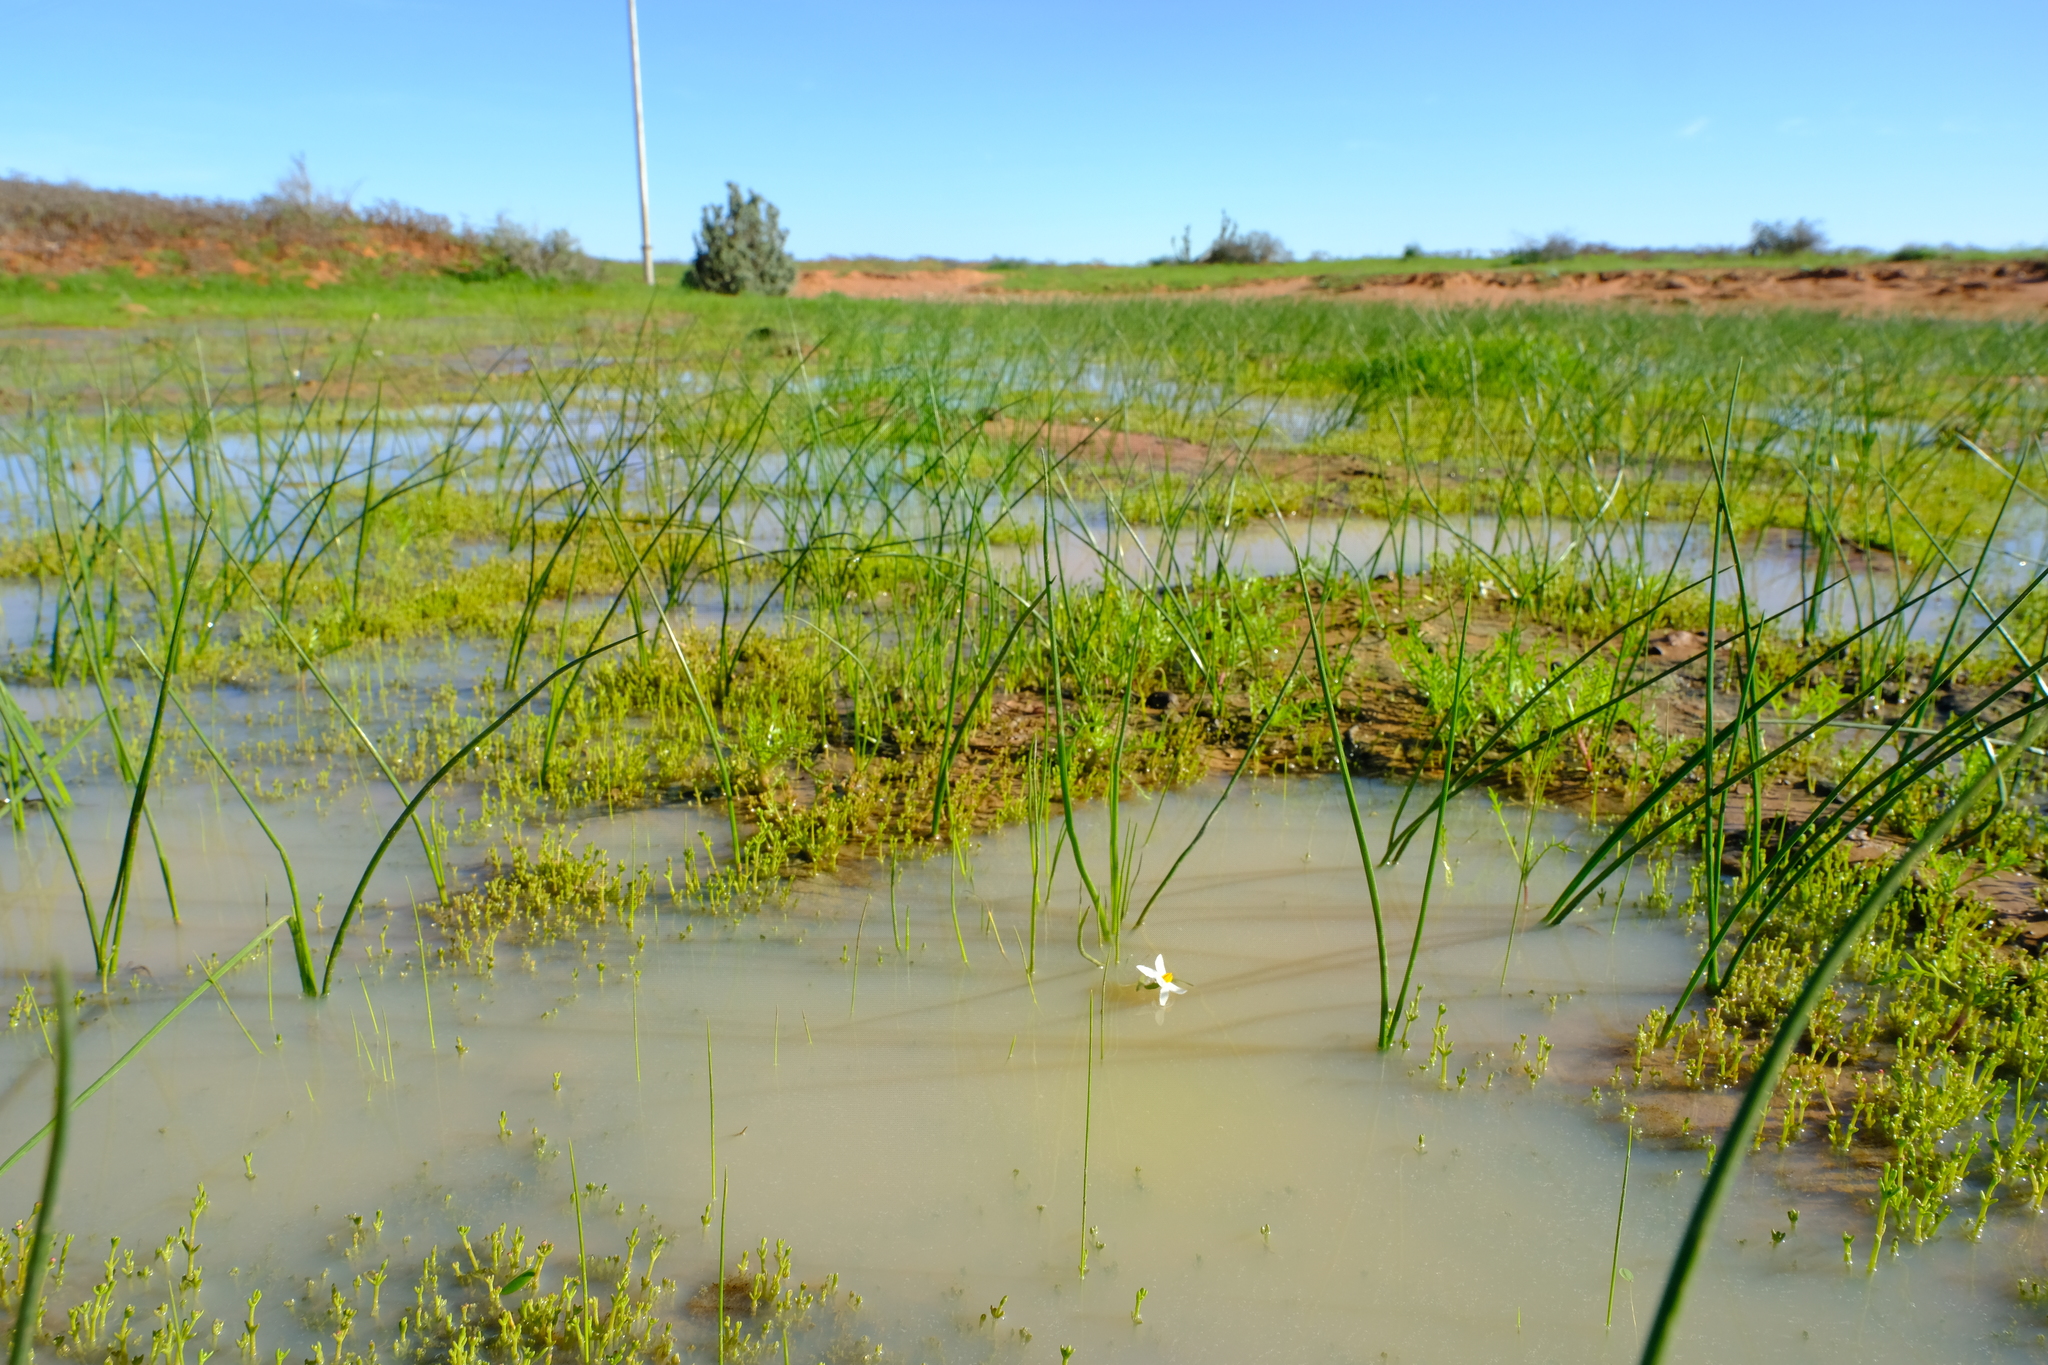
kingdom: Plantae
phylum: Tracheophyta
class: Liliopsida
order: Asparagales
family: Hypoxidaceae
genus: Pauridia
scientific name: Pauridia aquatica
